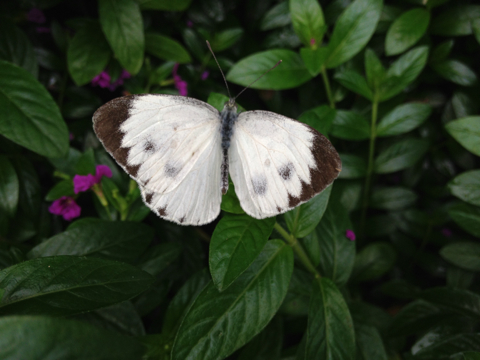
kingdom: Animalia
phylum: Arthropoda
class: Insecta
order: Lepidoptera
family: Pieridae
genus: Pieris
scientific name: Pieris canidia
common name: Indian cabbage white
